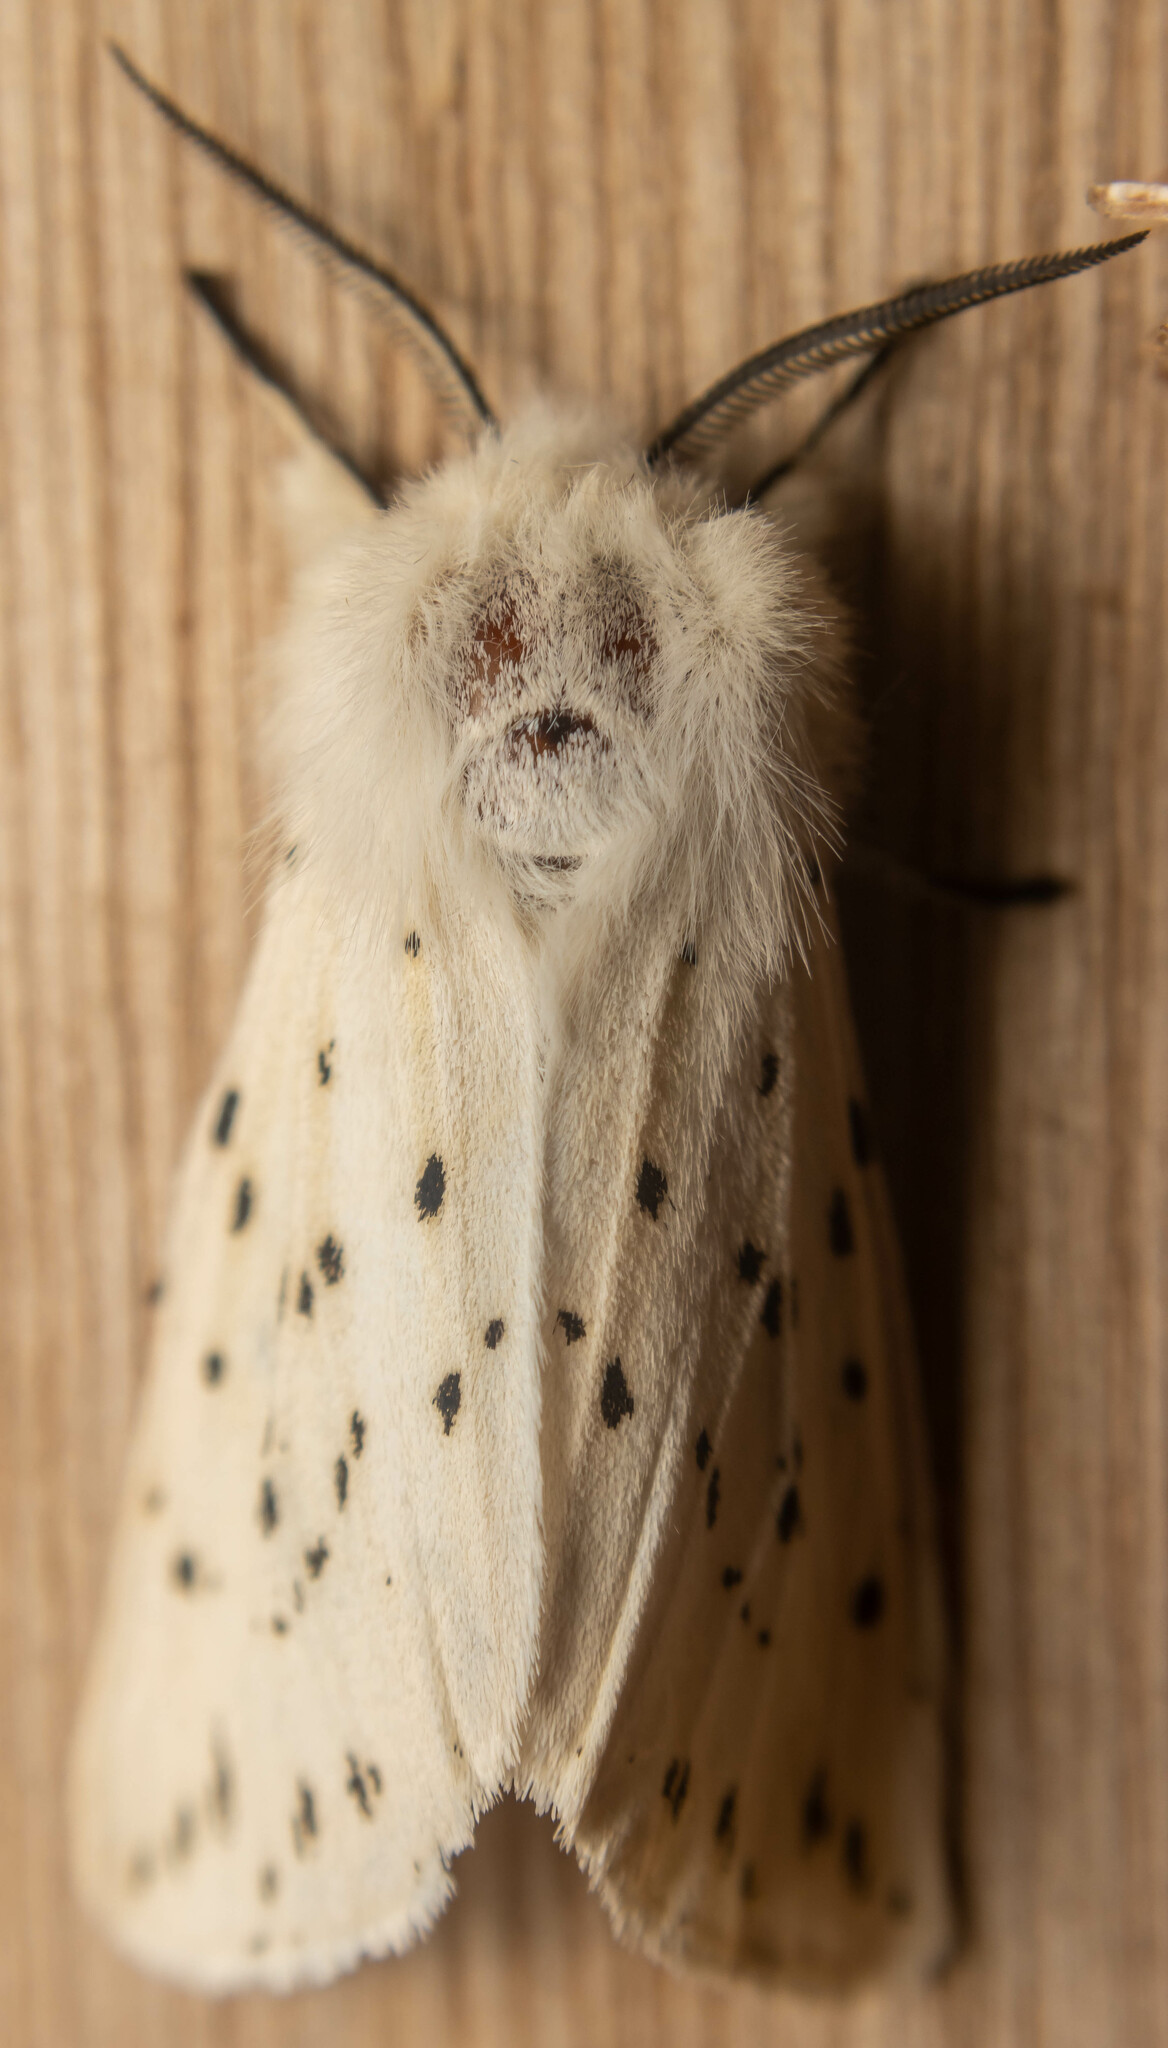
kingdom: Animalia
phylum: Arthropoda
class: Insecta
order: Lepidoptera
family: Erebidae
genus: Spilosoma
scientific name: Spilosoma lubricipeda
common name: White ermine
